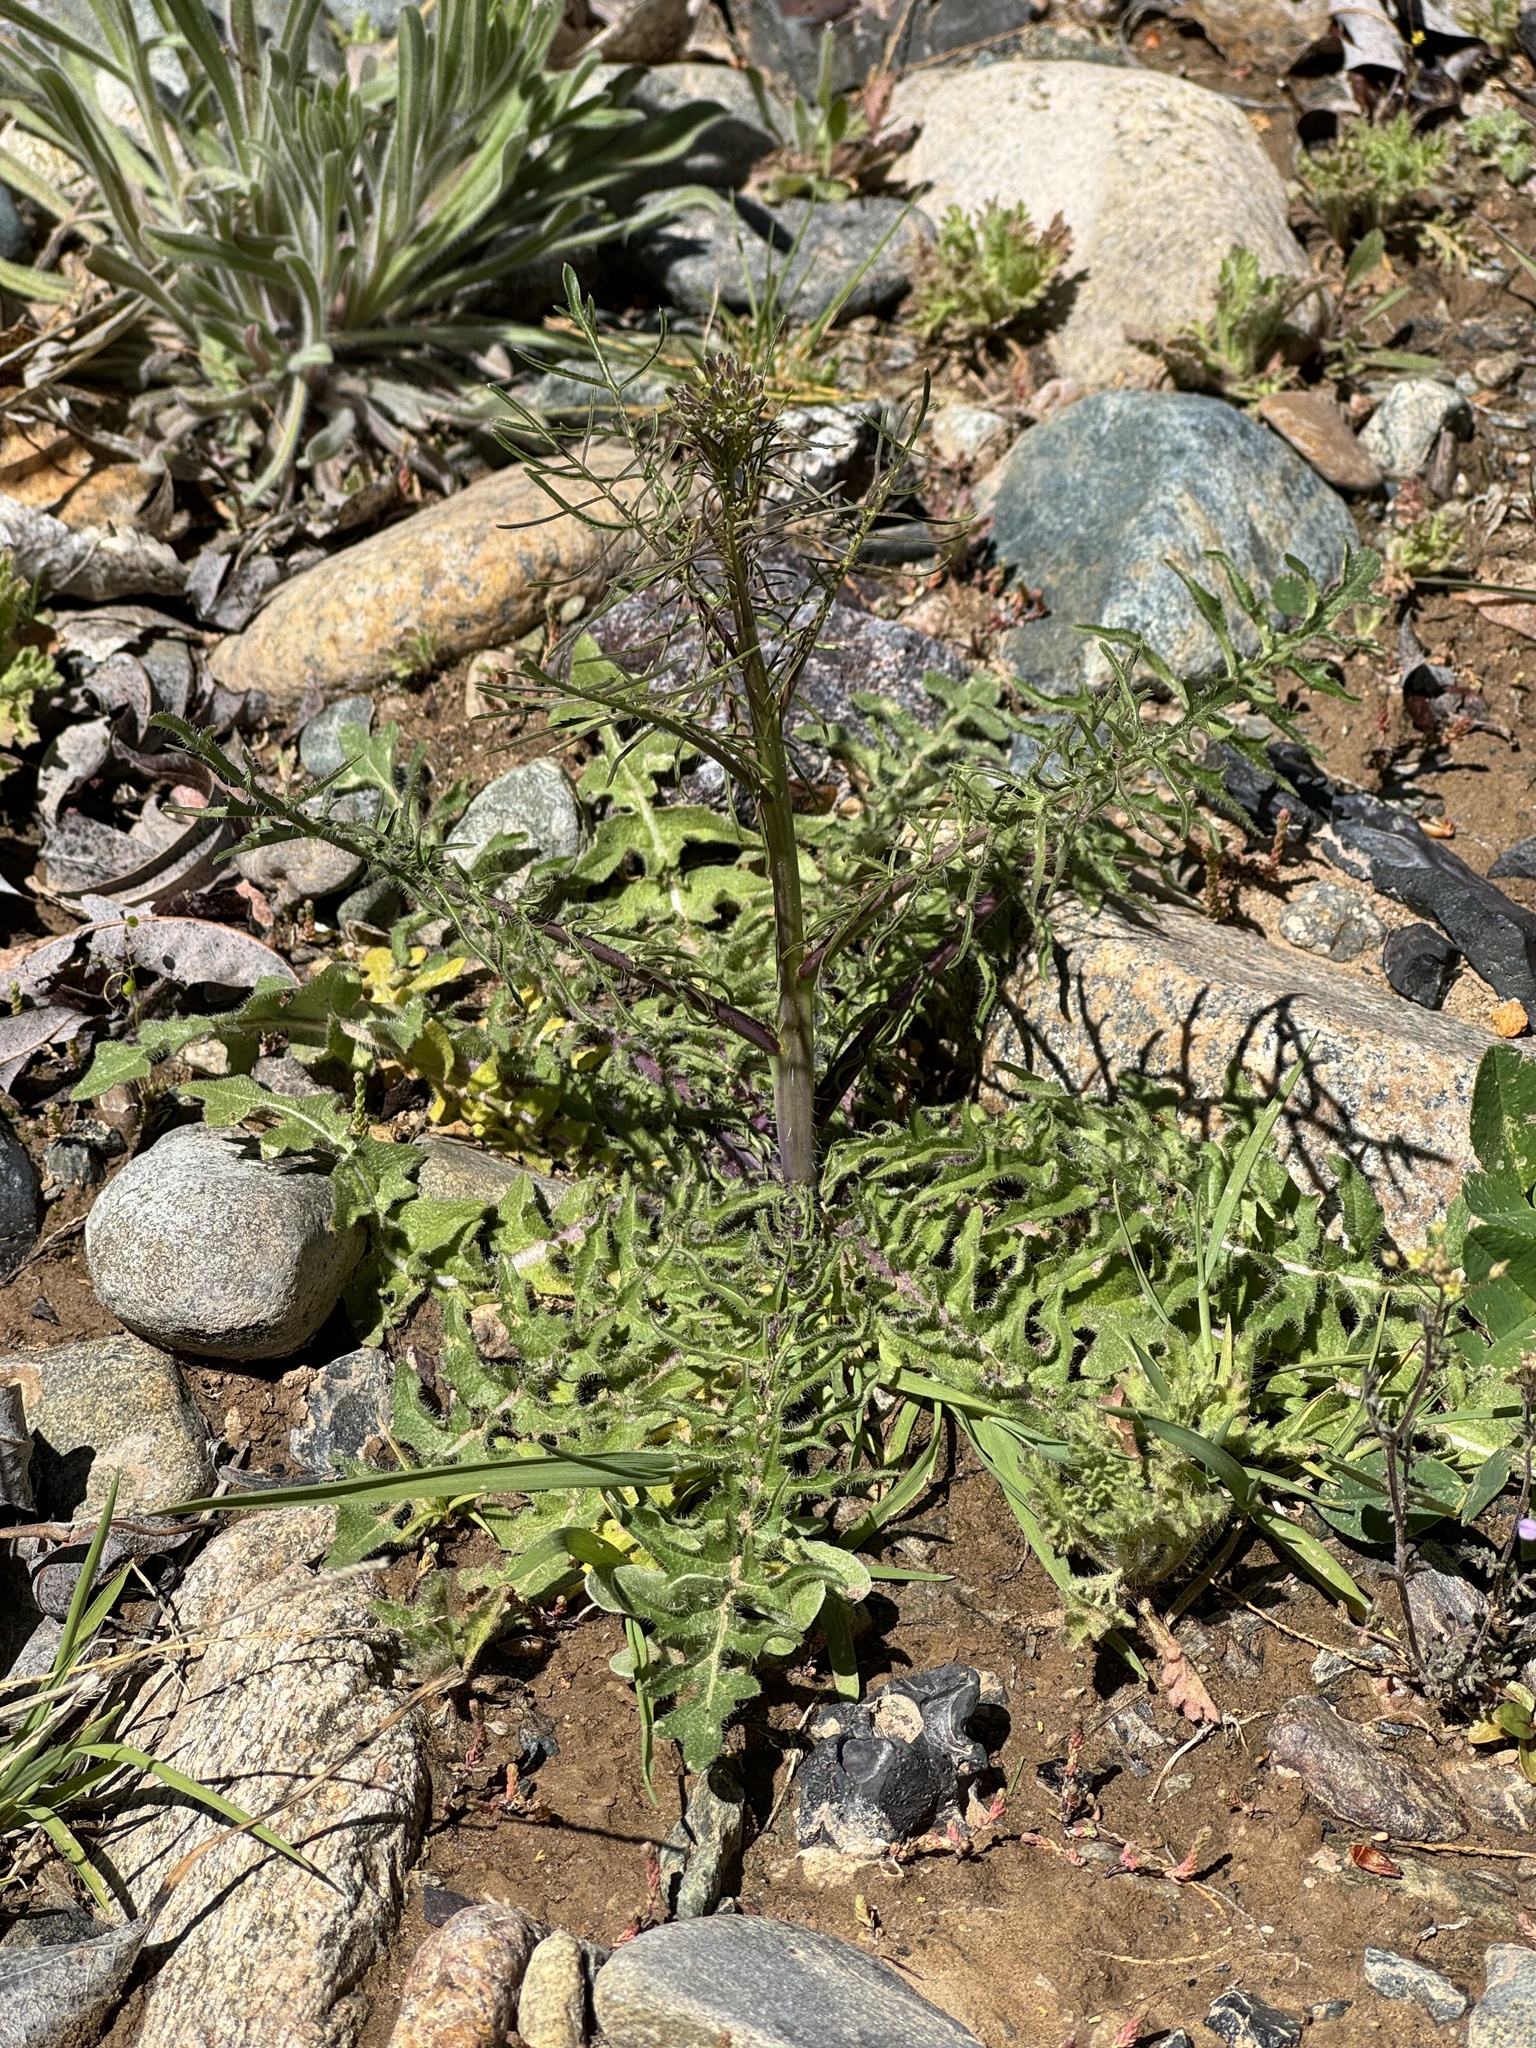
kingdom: Plantae
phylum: Tracheophyta
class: Magnoliopsida
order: Brassicales
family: Brassicaceae
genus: Sisymbrium
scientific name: Sisymbrium altissimum
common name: Tall rocket
